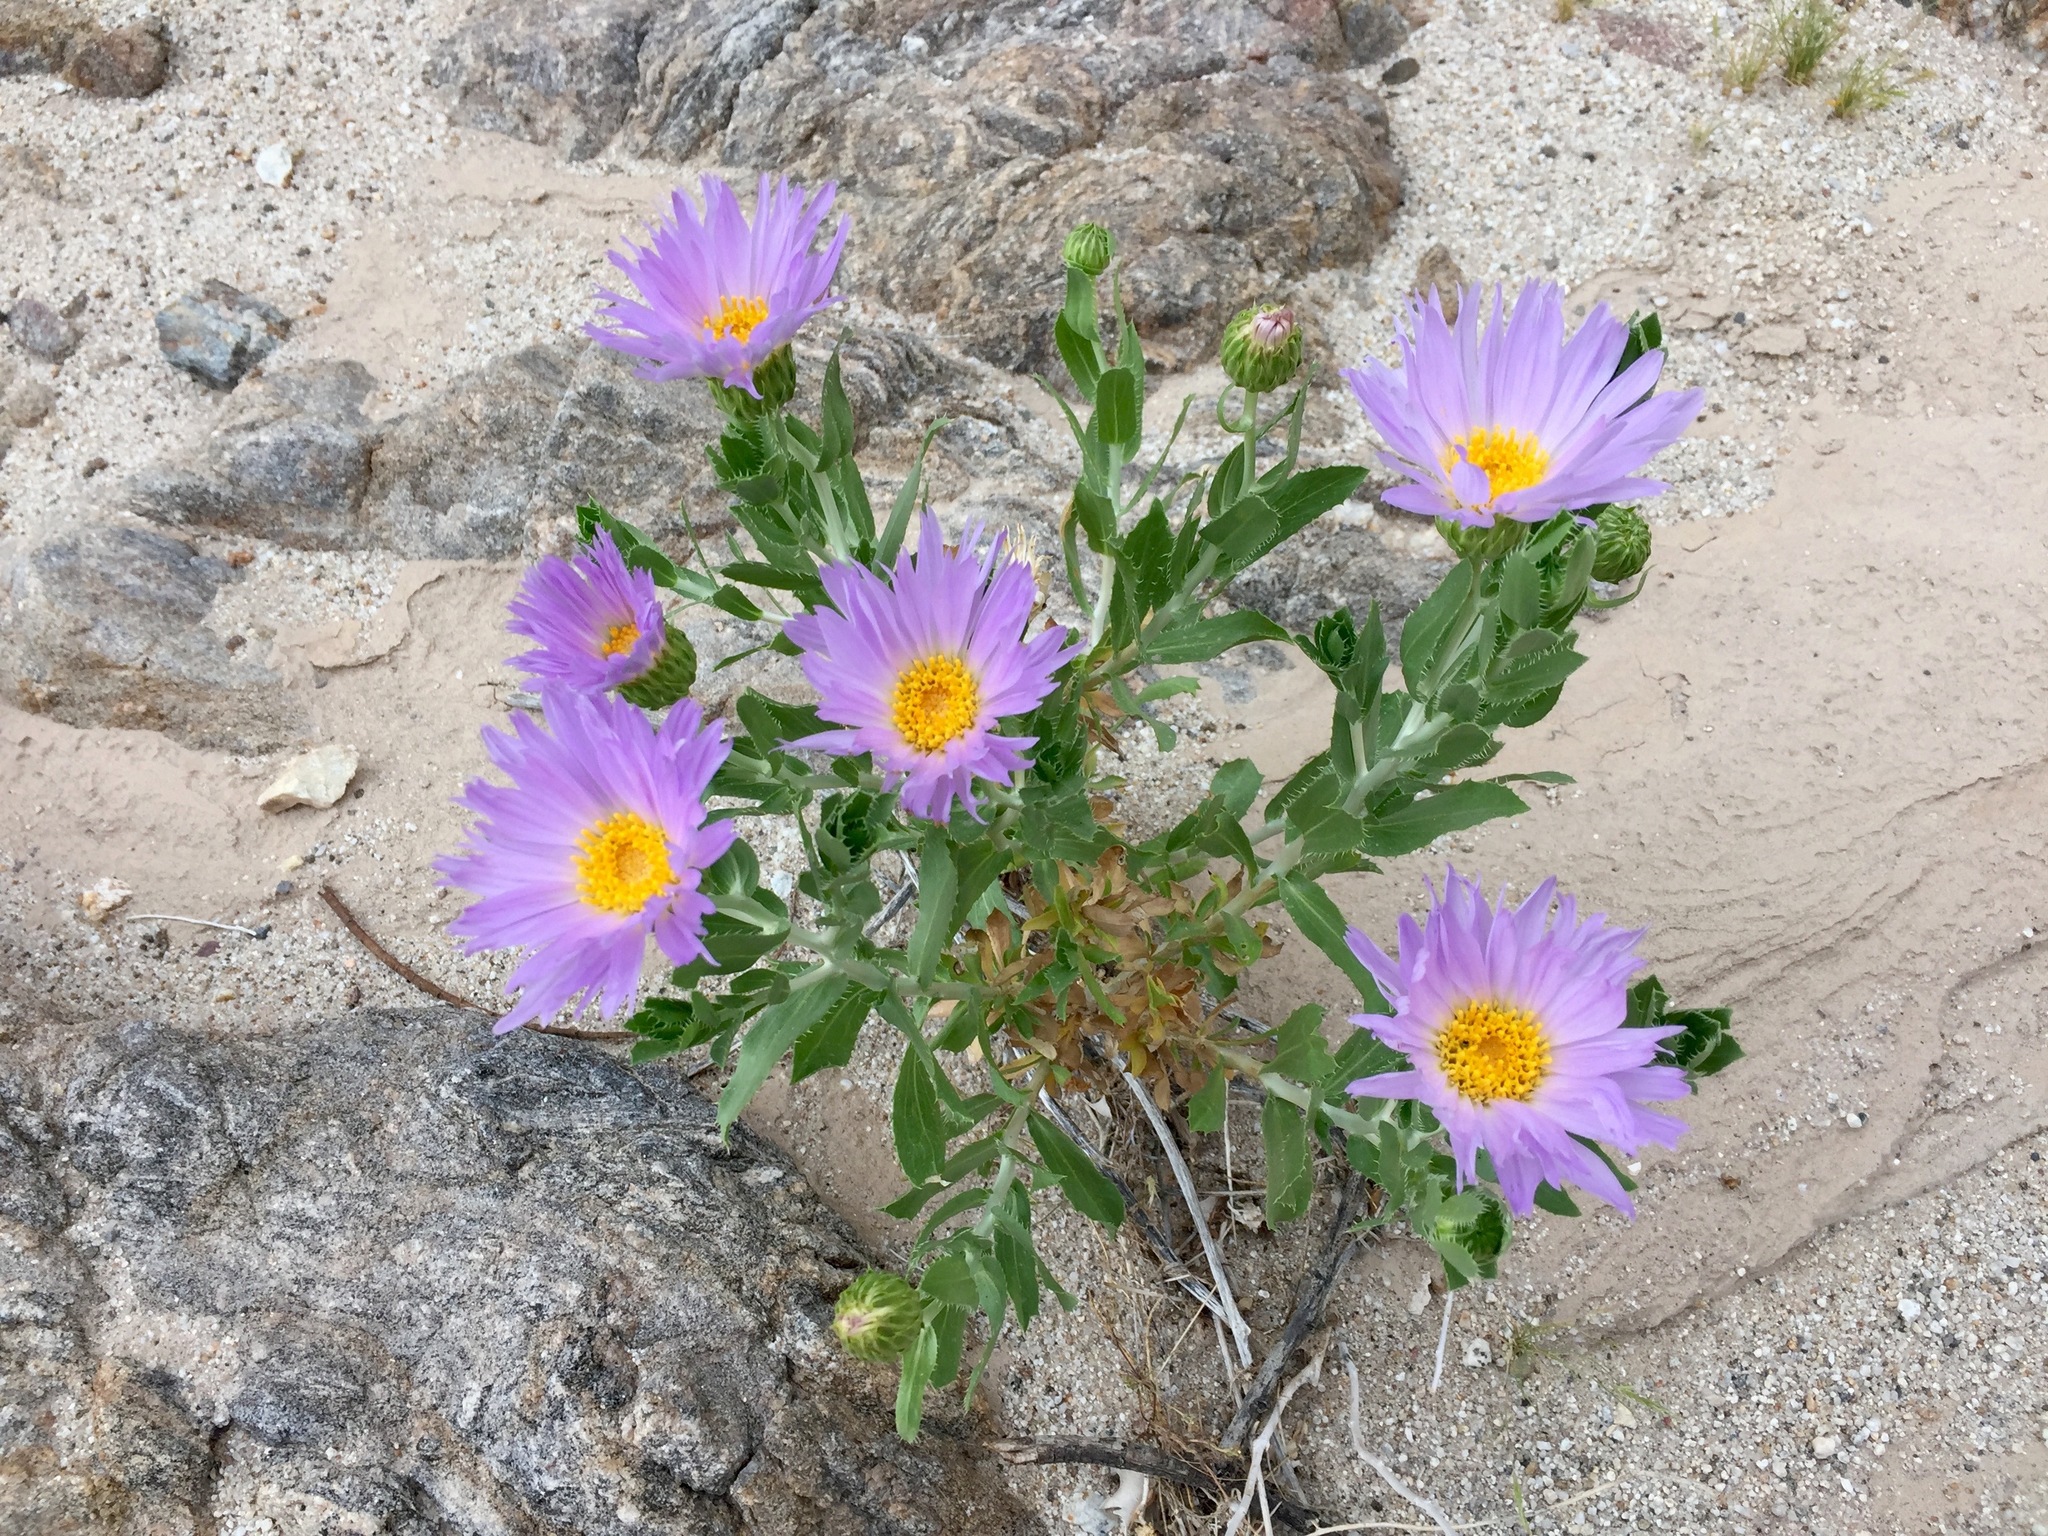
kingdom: Plantae
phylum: Tracheophyta
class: Magnoliopsida
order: Asterales
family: Asteraceae
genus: Xylorhiza
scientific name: Xylorhiza orcuttii
